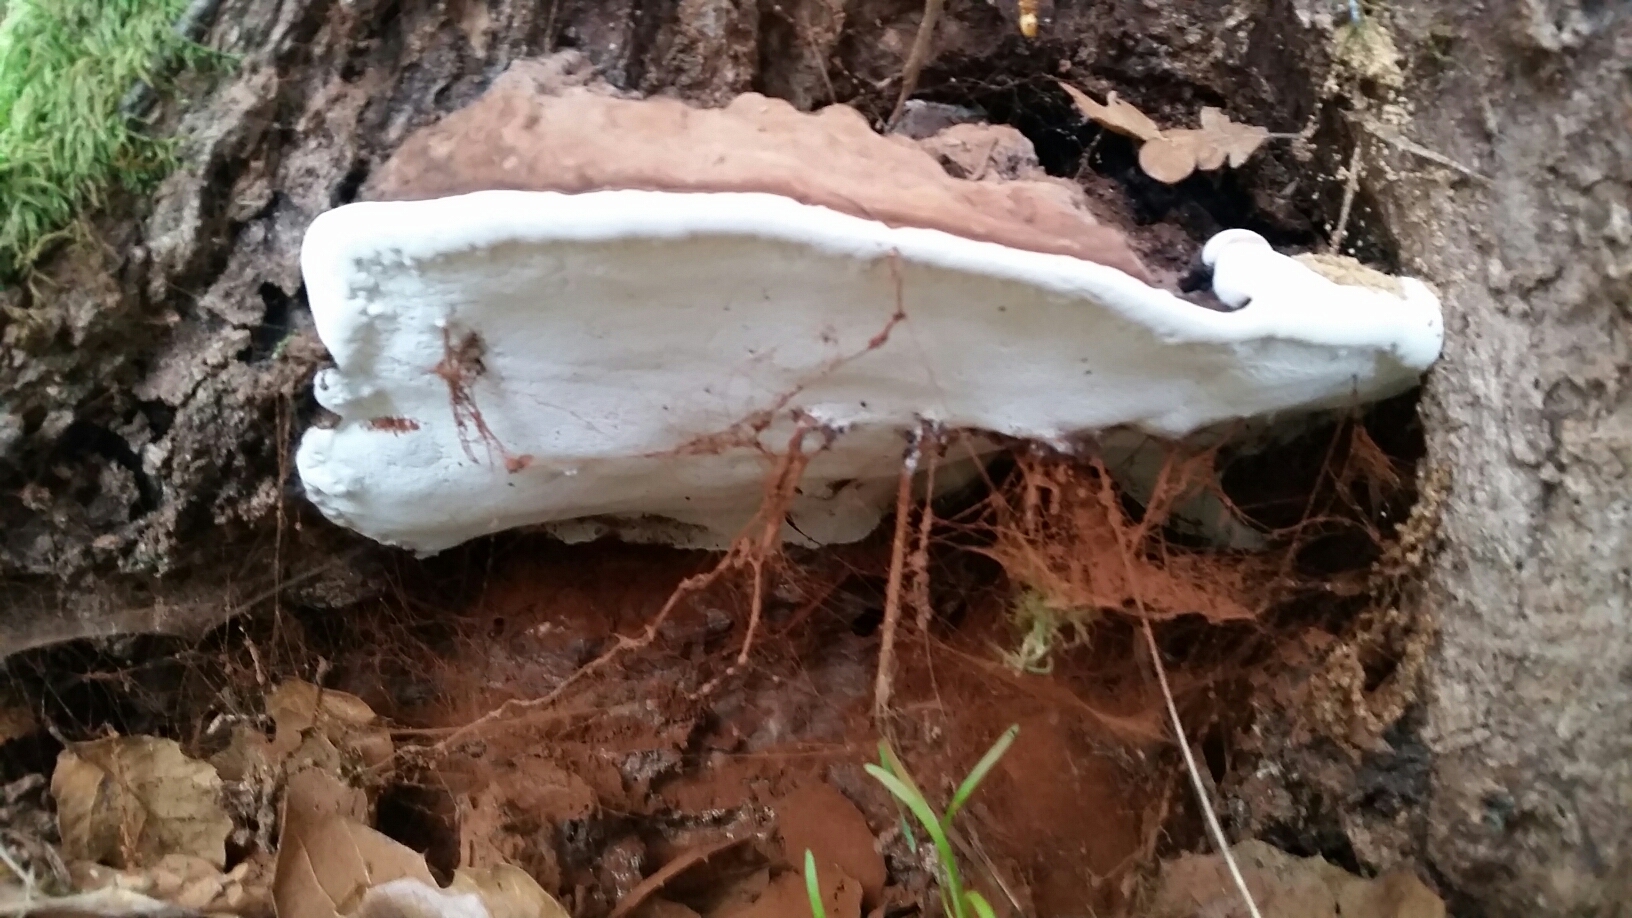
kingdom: Fungi
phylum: Basidiomycota
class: Agaricomycetes
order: Polyporales
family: Polyporaceae
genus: Ganoderma
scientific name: Ganoderma brownii
